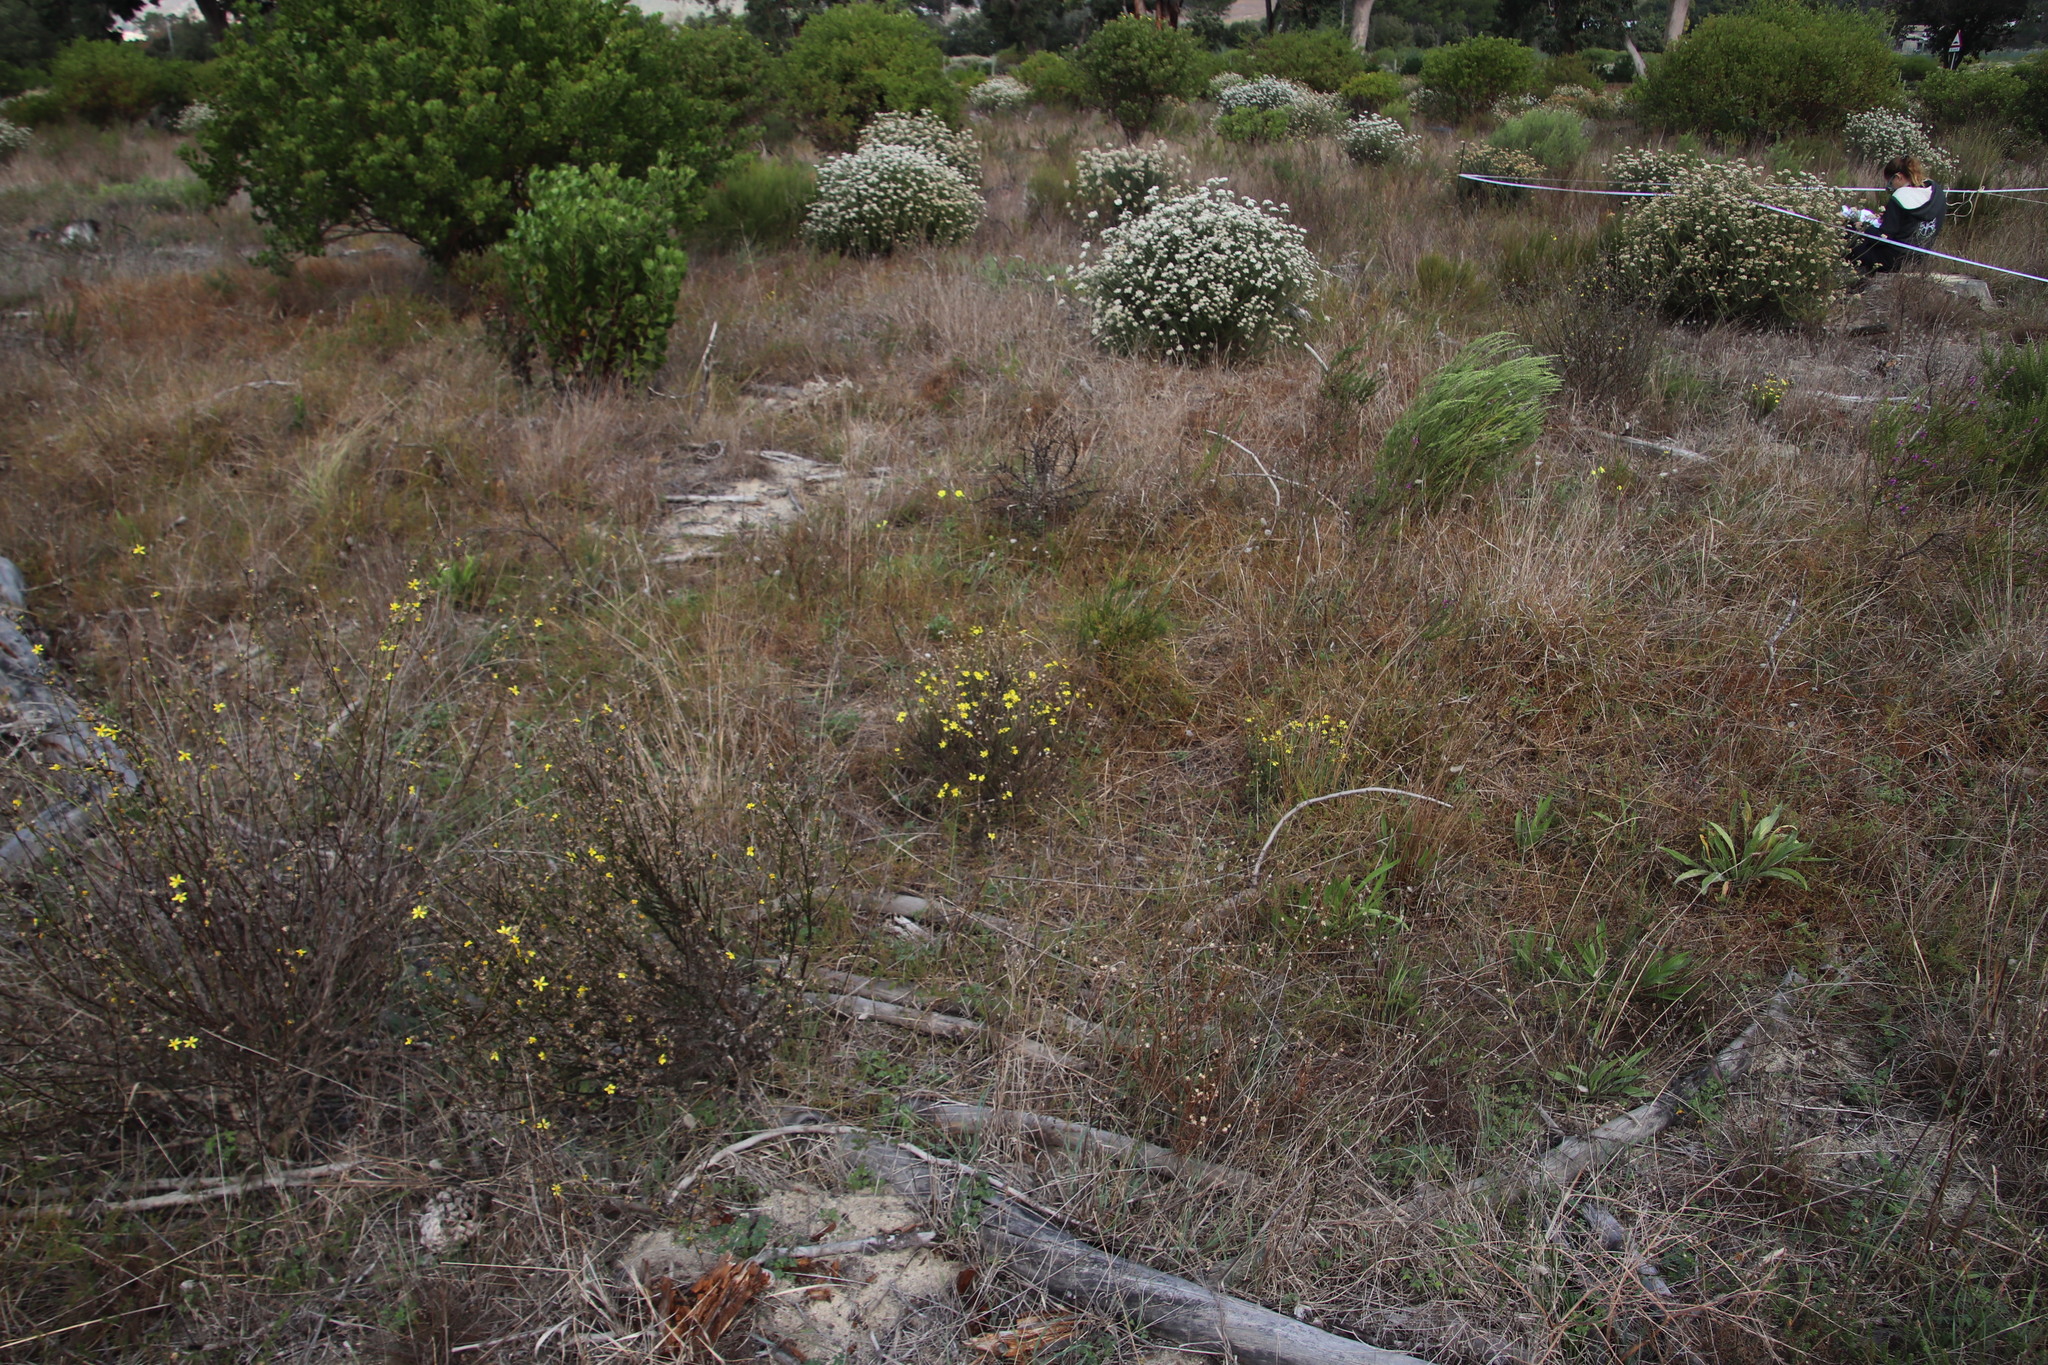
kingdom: Plantae
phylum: Tracheophyta
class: Magnoliopsida
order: Asterales
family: Asteraceae
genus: Senecio
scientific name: Senecio burchellii
